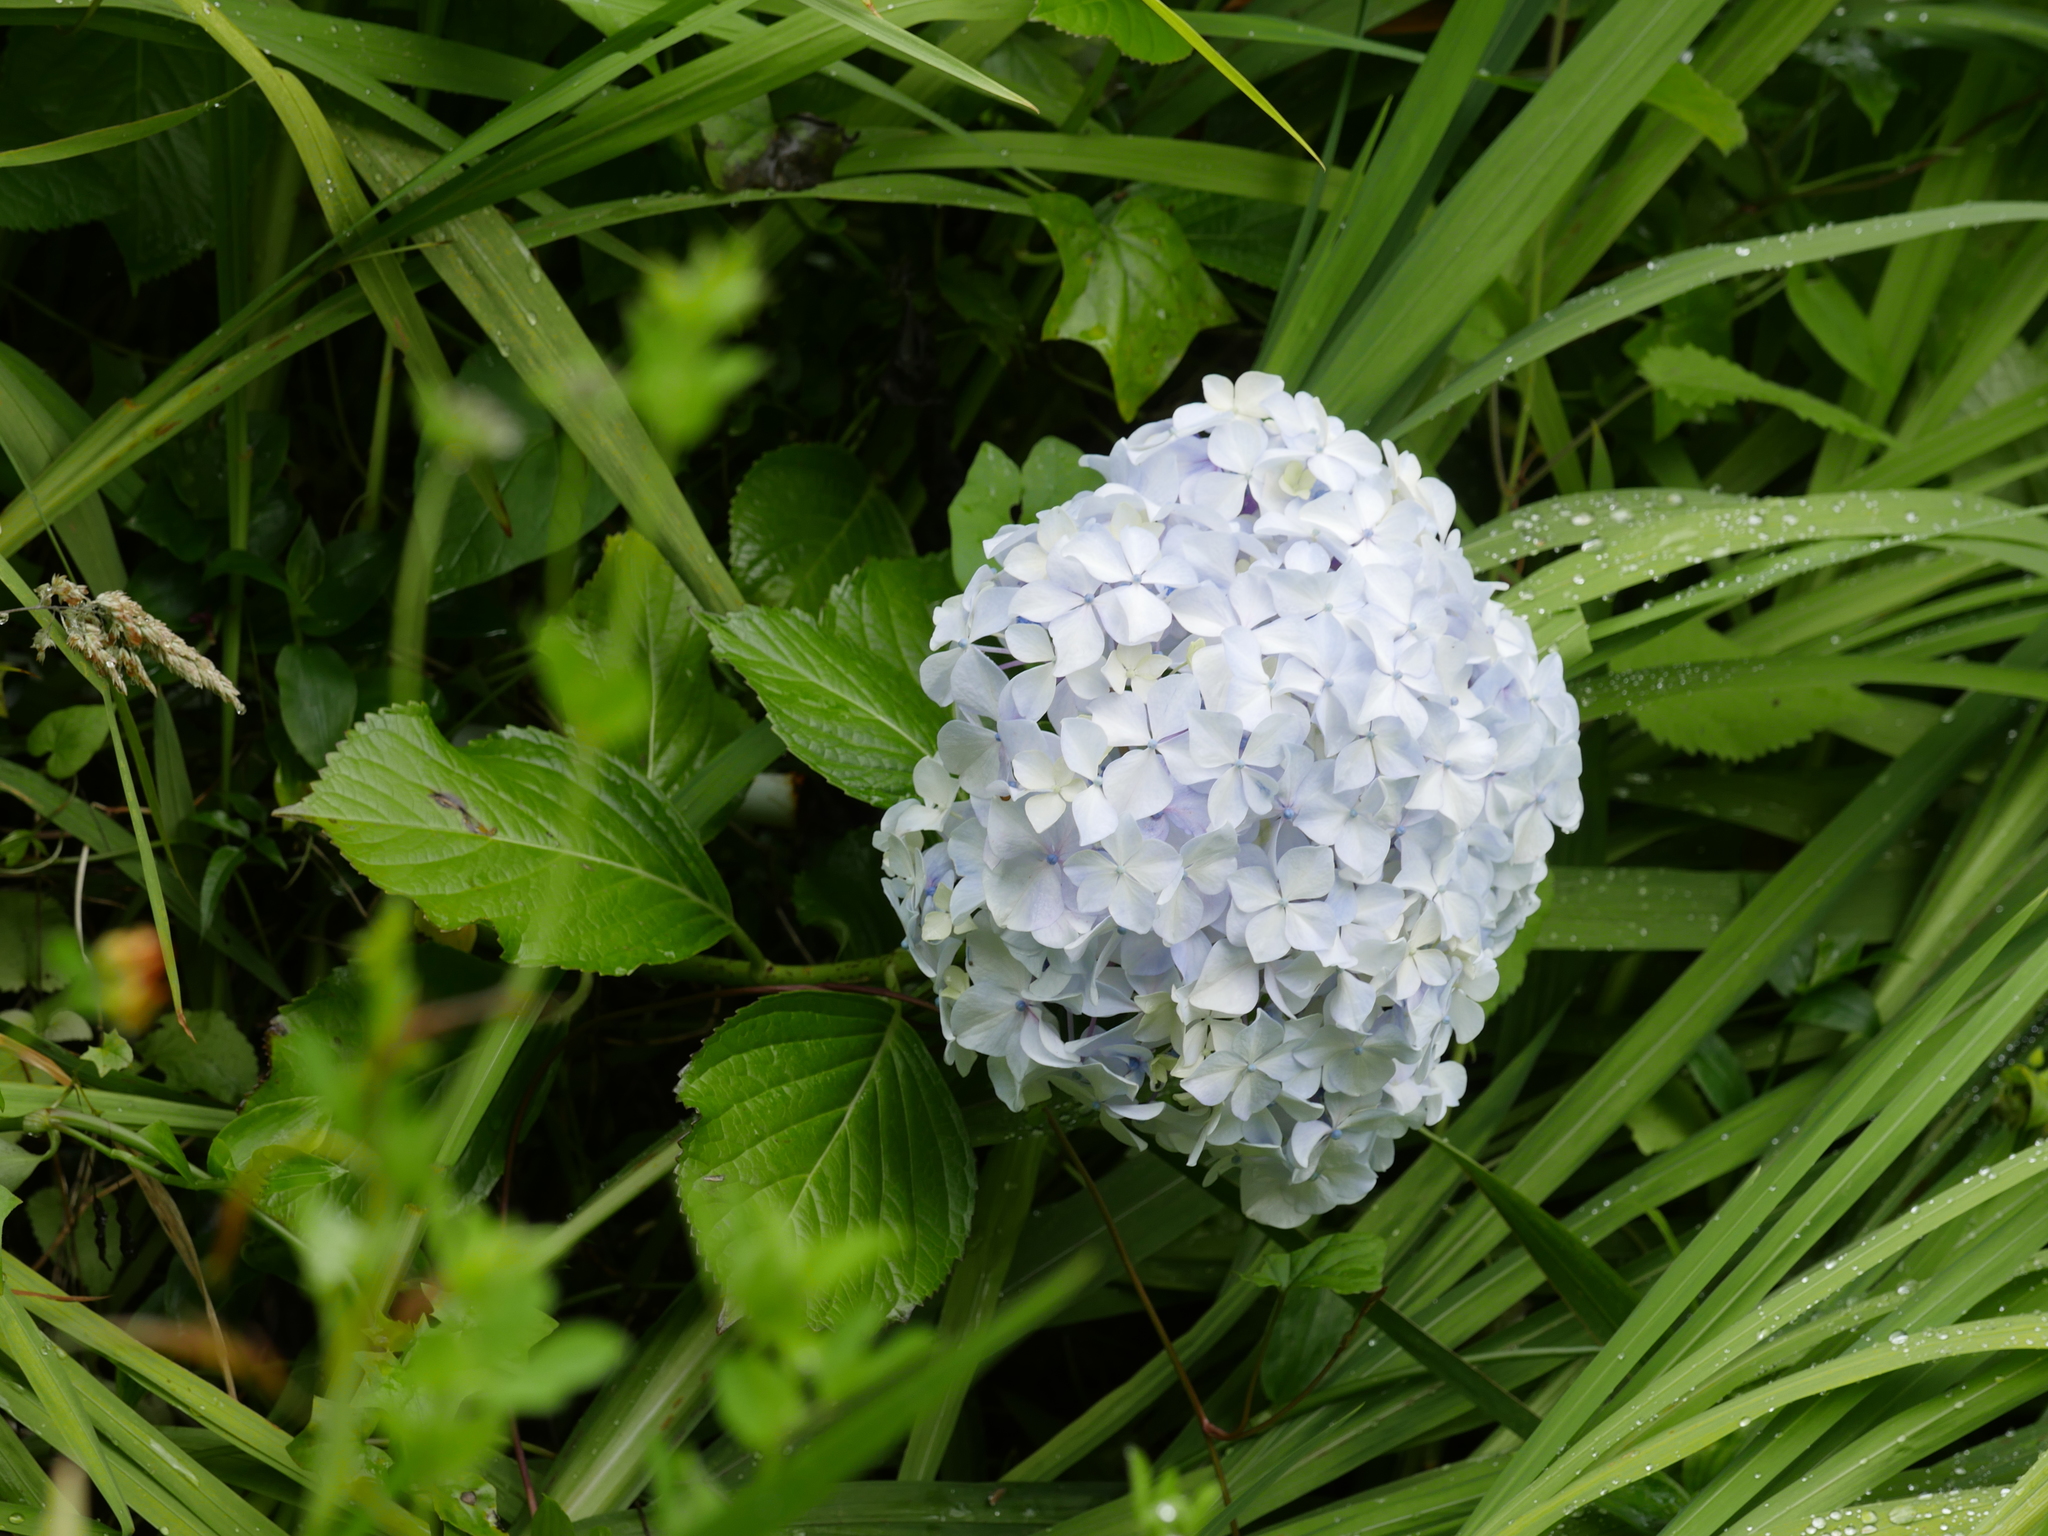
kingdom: Plantae
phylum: Tracheophyta
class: Magnoliopsida
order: Cornales
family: Hydrangeaceae
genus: Hydrangea
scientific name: Hydrangea macrophylla
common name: Hydrangea
